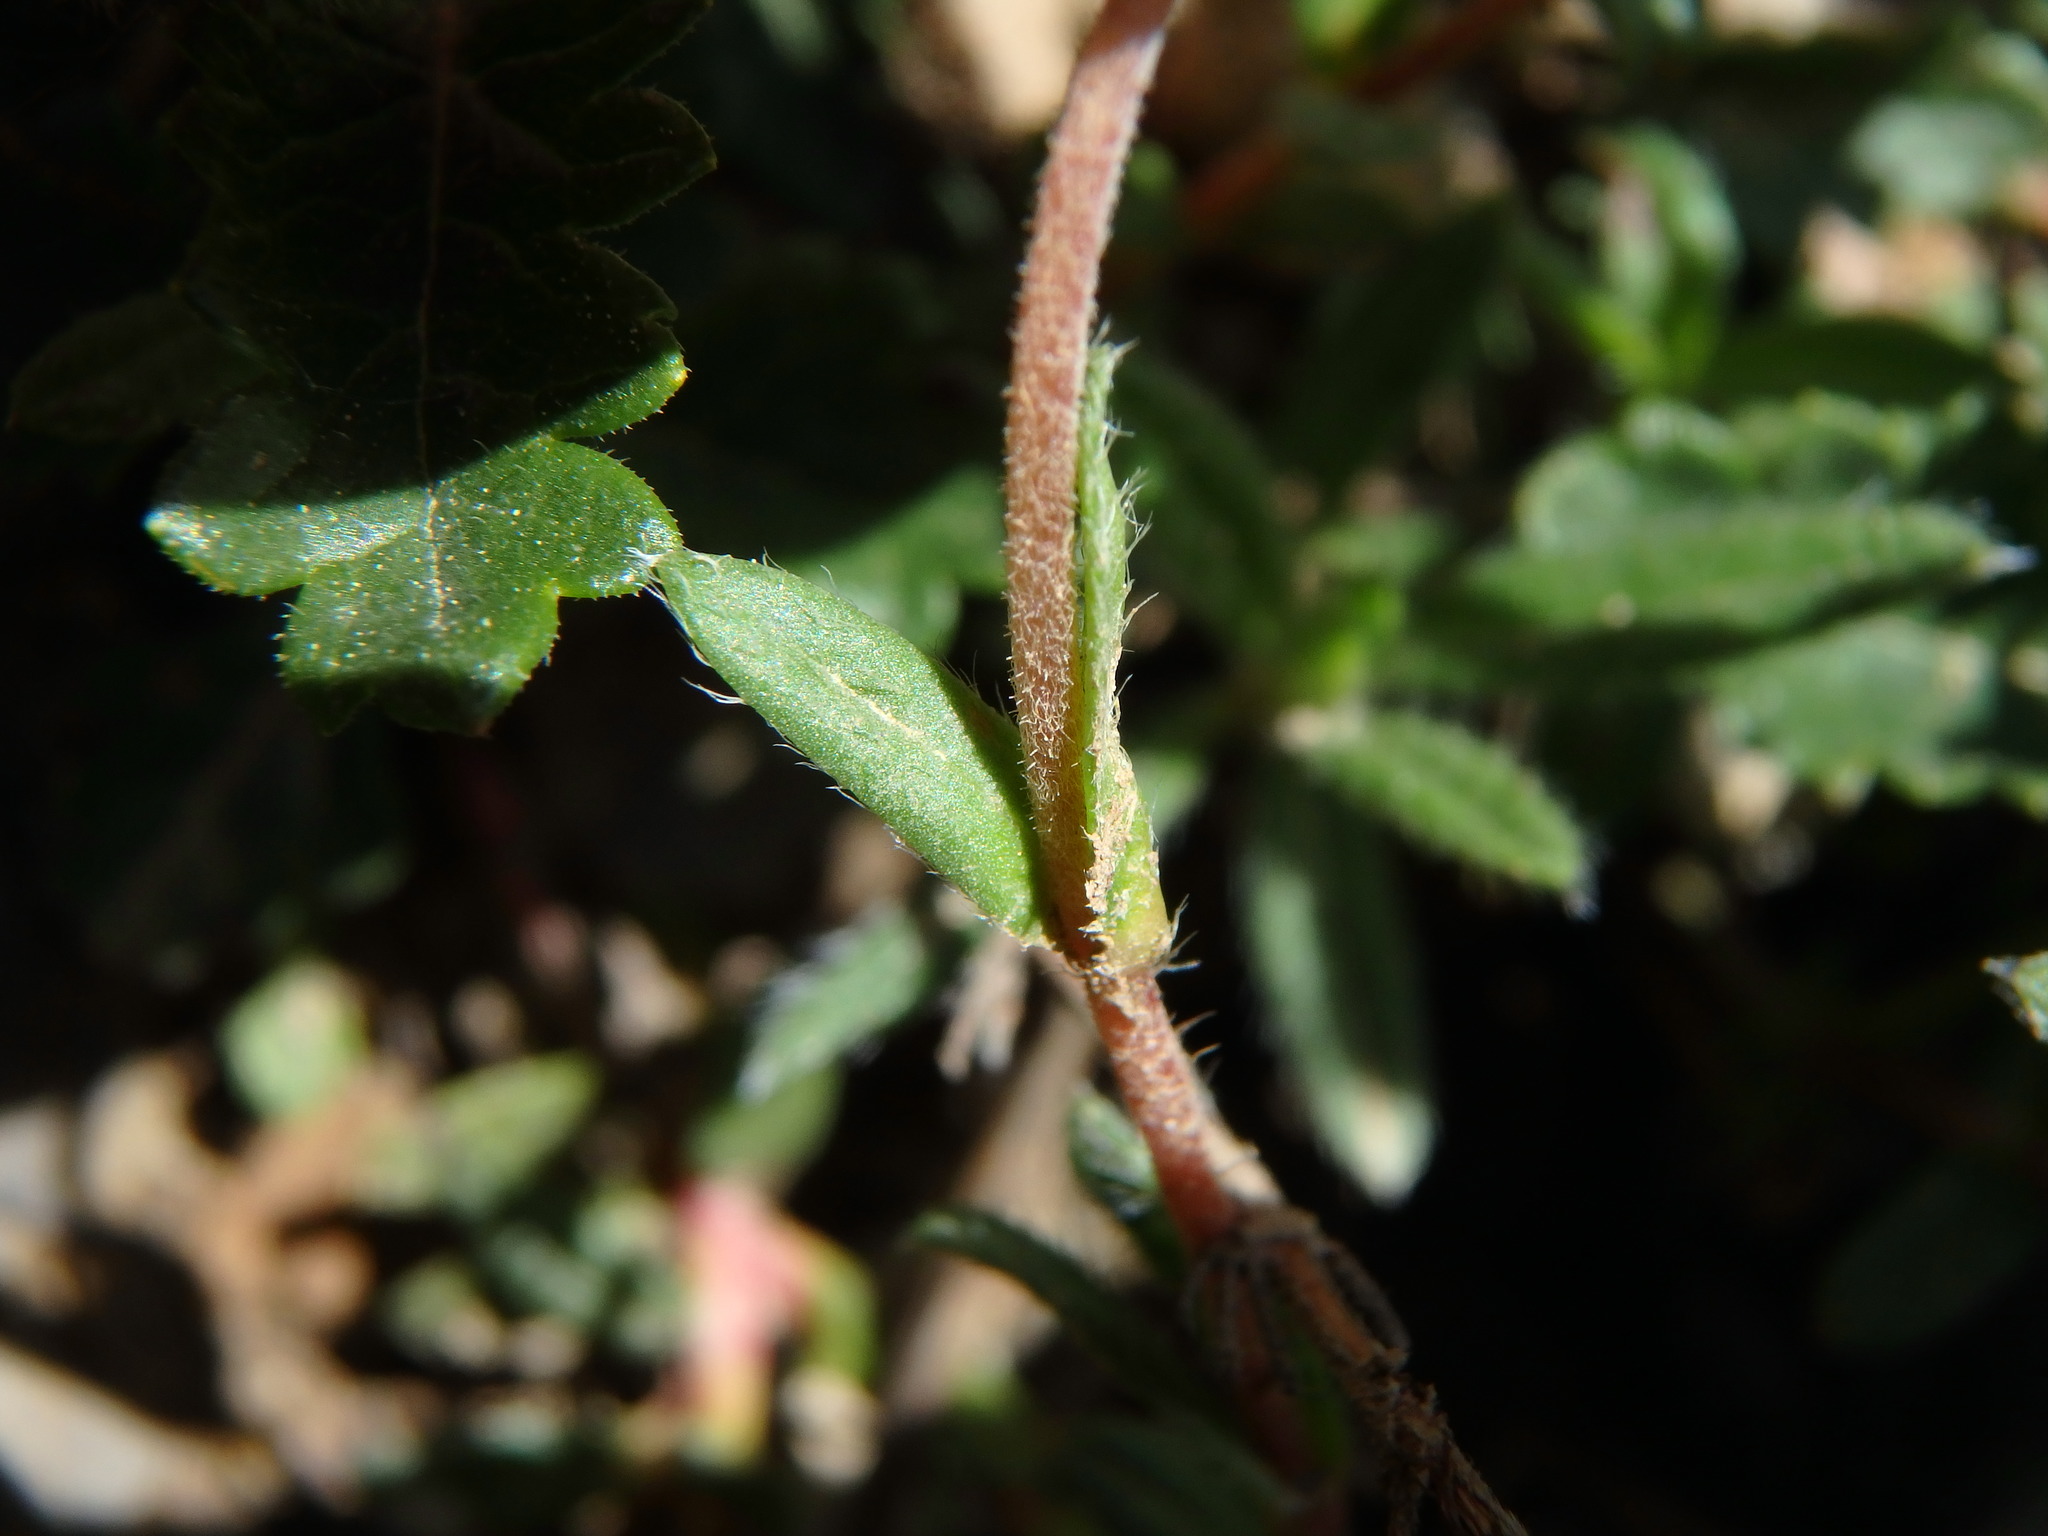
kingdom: Plantae
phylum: Tracheophyta
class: Magnoliopsida
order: Malvales
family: Cistaceae
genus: Helianthemum
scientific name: Helianthemum nummularium
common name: Common rock-rose
